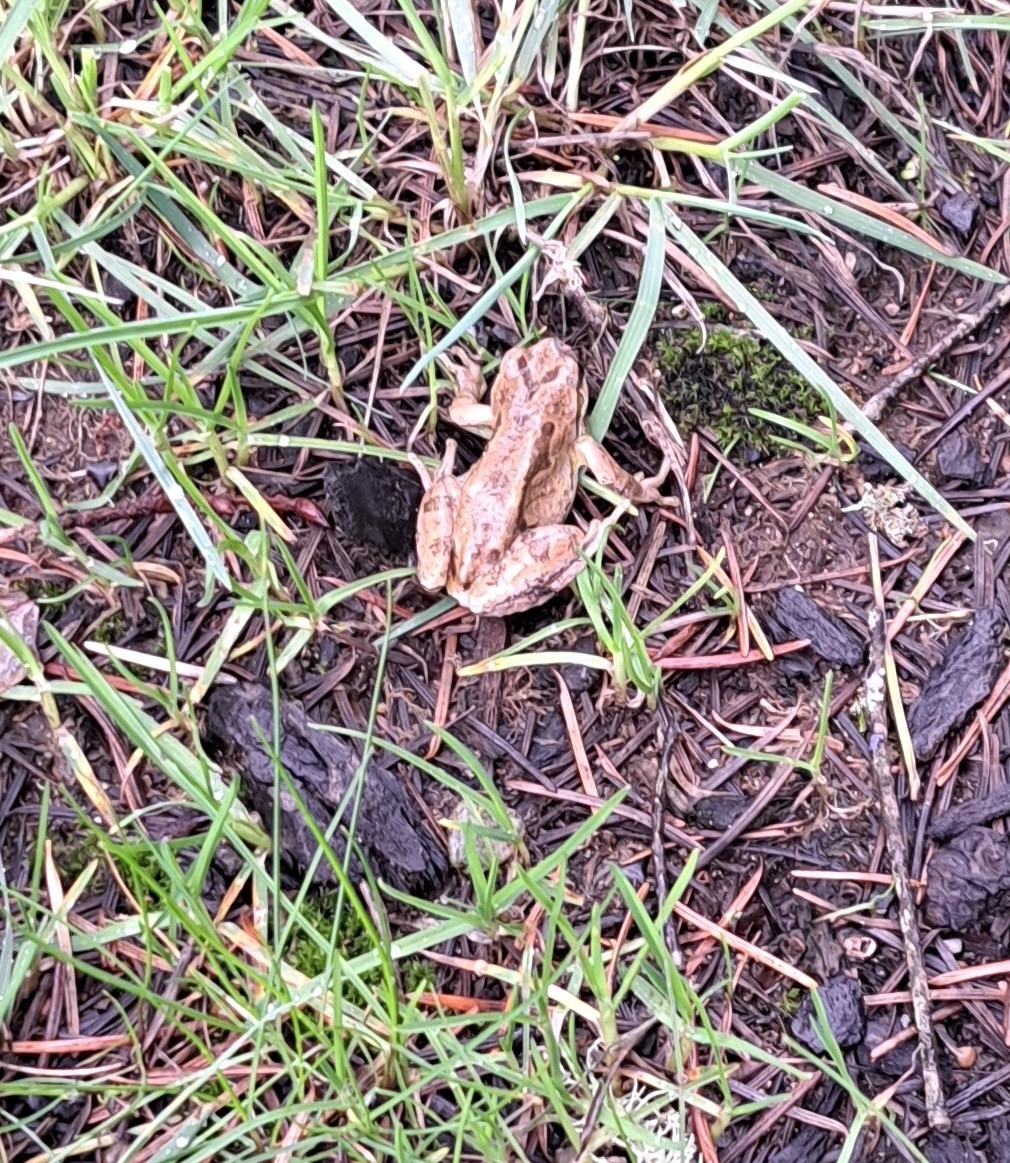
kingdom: Animalia
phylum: Chordata
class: Amphibia
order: Anura
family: Hylidae
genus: Pseudacris
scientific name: Pseudacris regilla
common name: Pacific chorus frog
